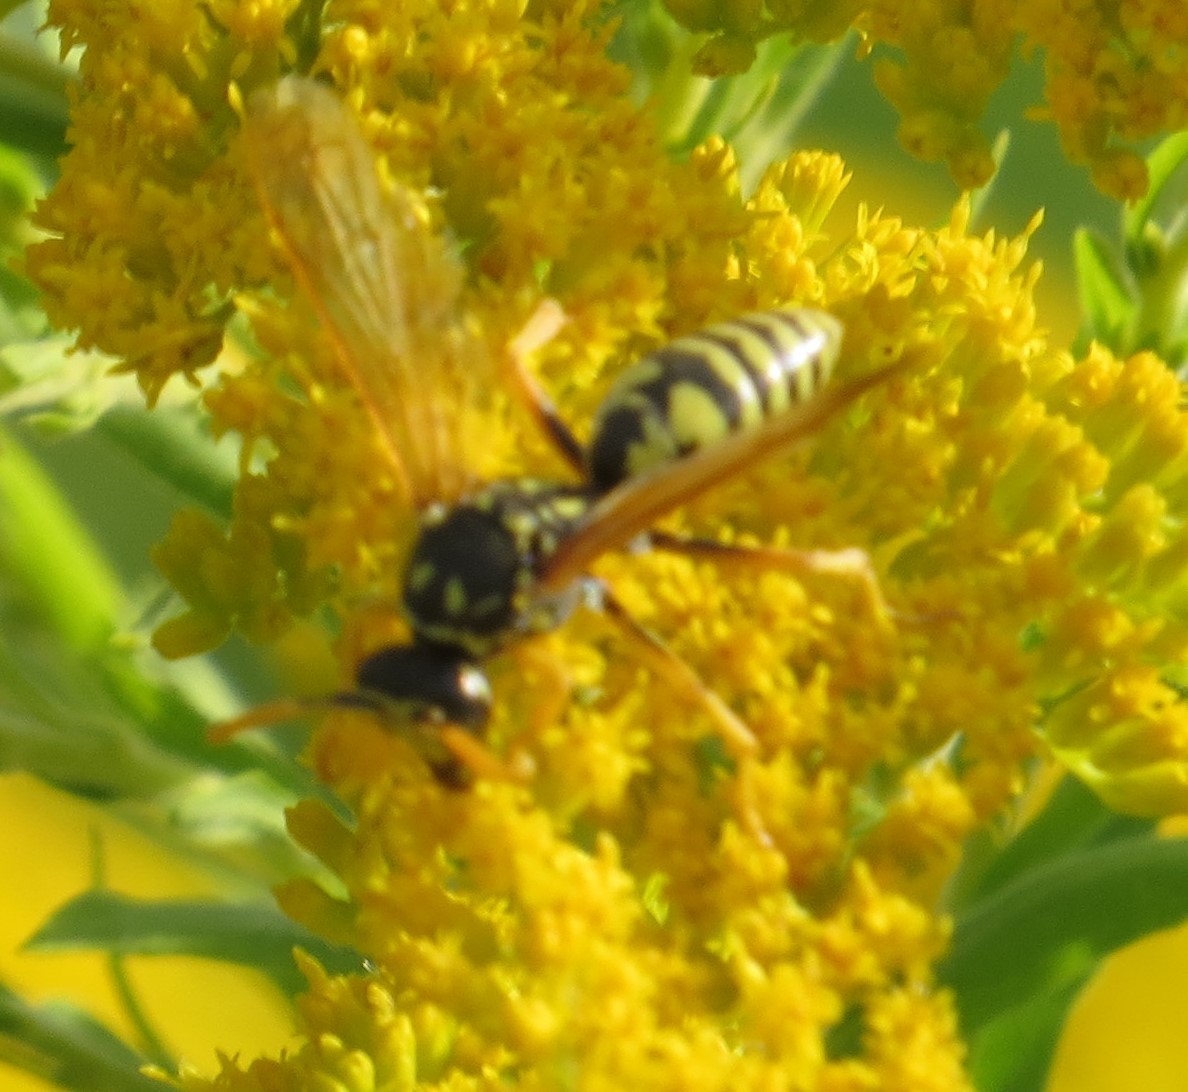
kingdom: Animalia
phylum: Arthropoda
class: Insecta
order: Hymenoptera
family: Eumenidae
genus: Polistes
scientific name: Polistes dominula
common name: Paper wasp
